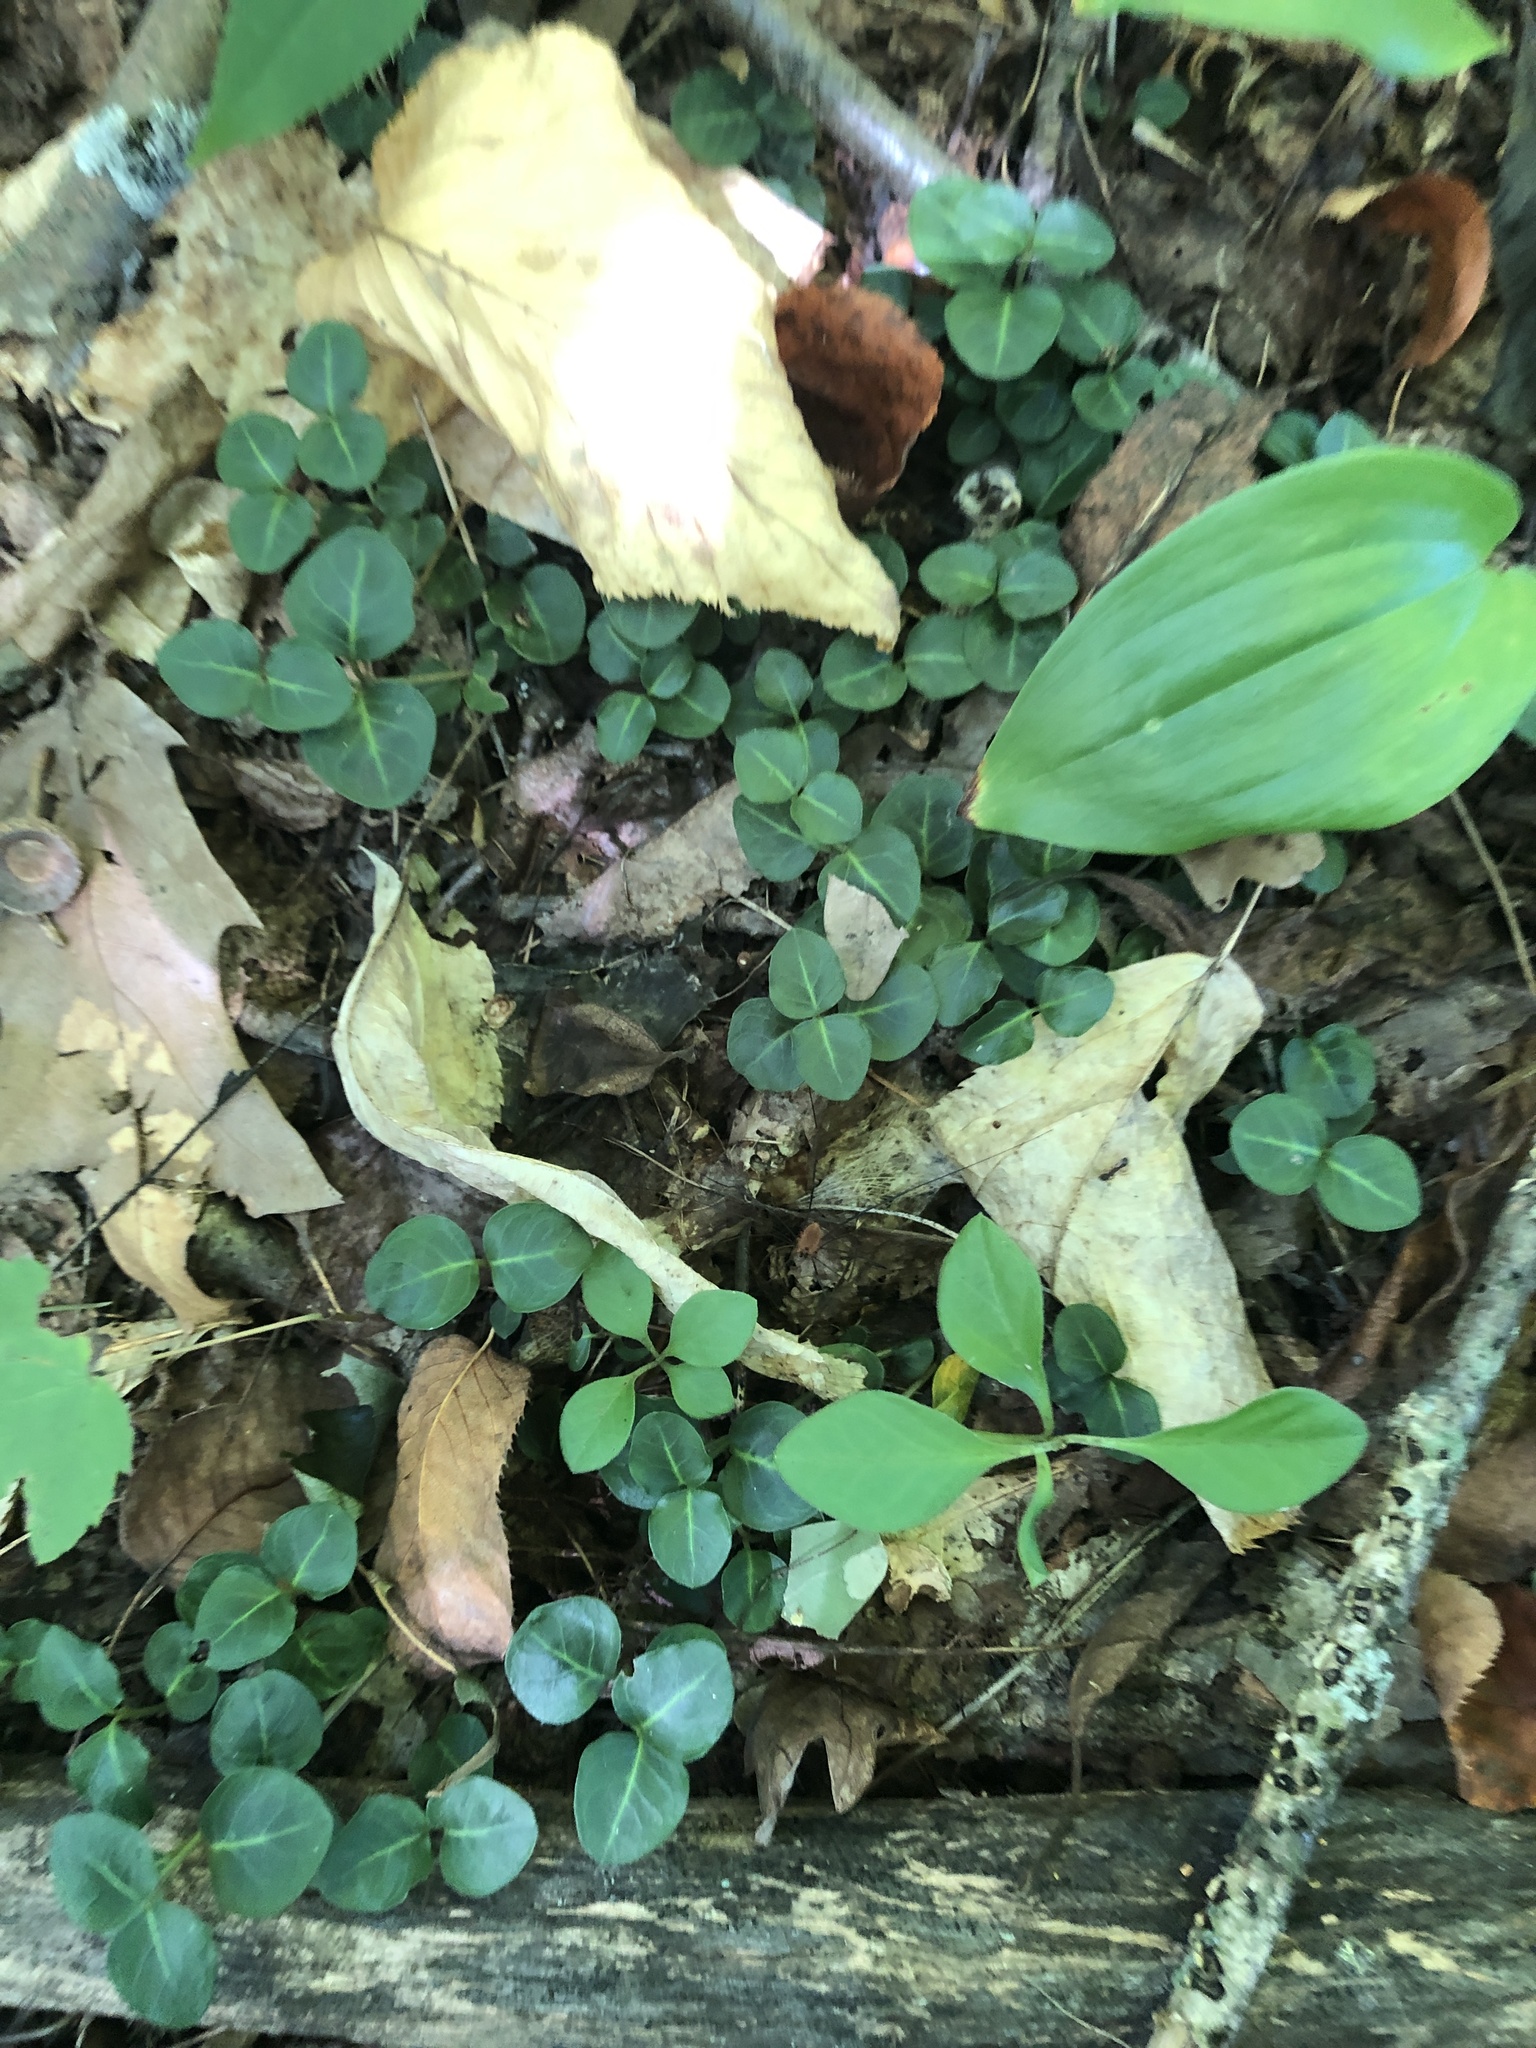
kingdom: Plantae
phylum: Tracheophyta
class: Magnoliopsida
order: Gentianales
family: Rubiaceae
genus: Mitchella
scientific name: Mitchella repens
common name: Partridge-berry
